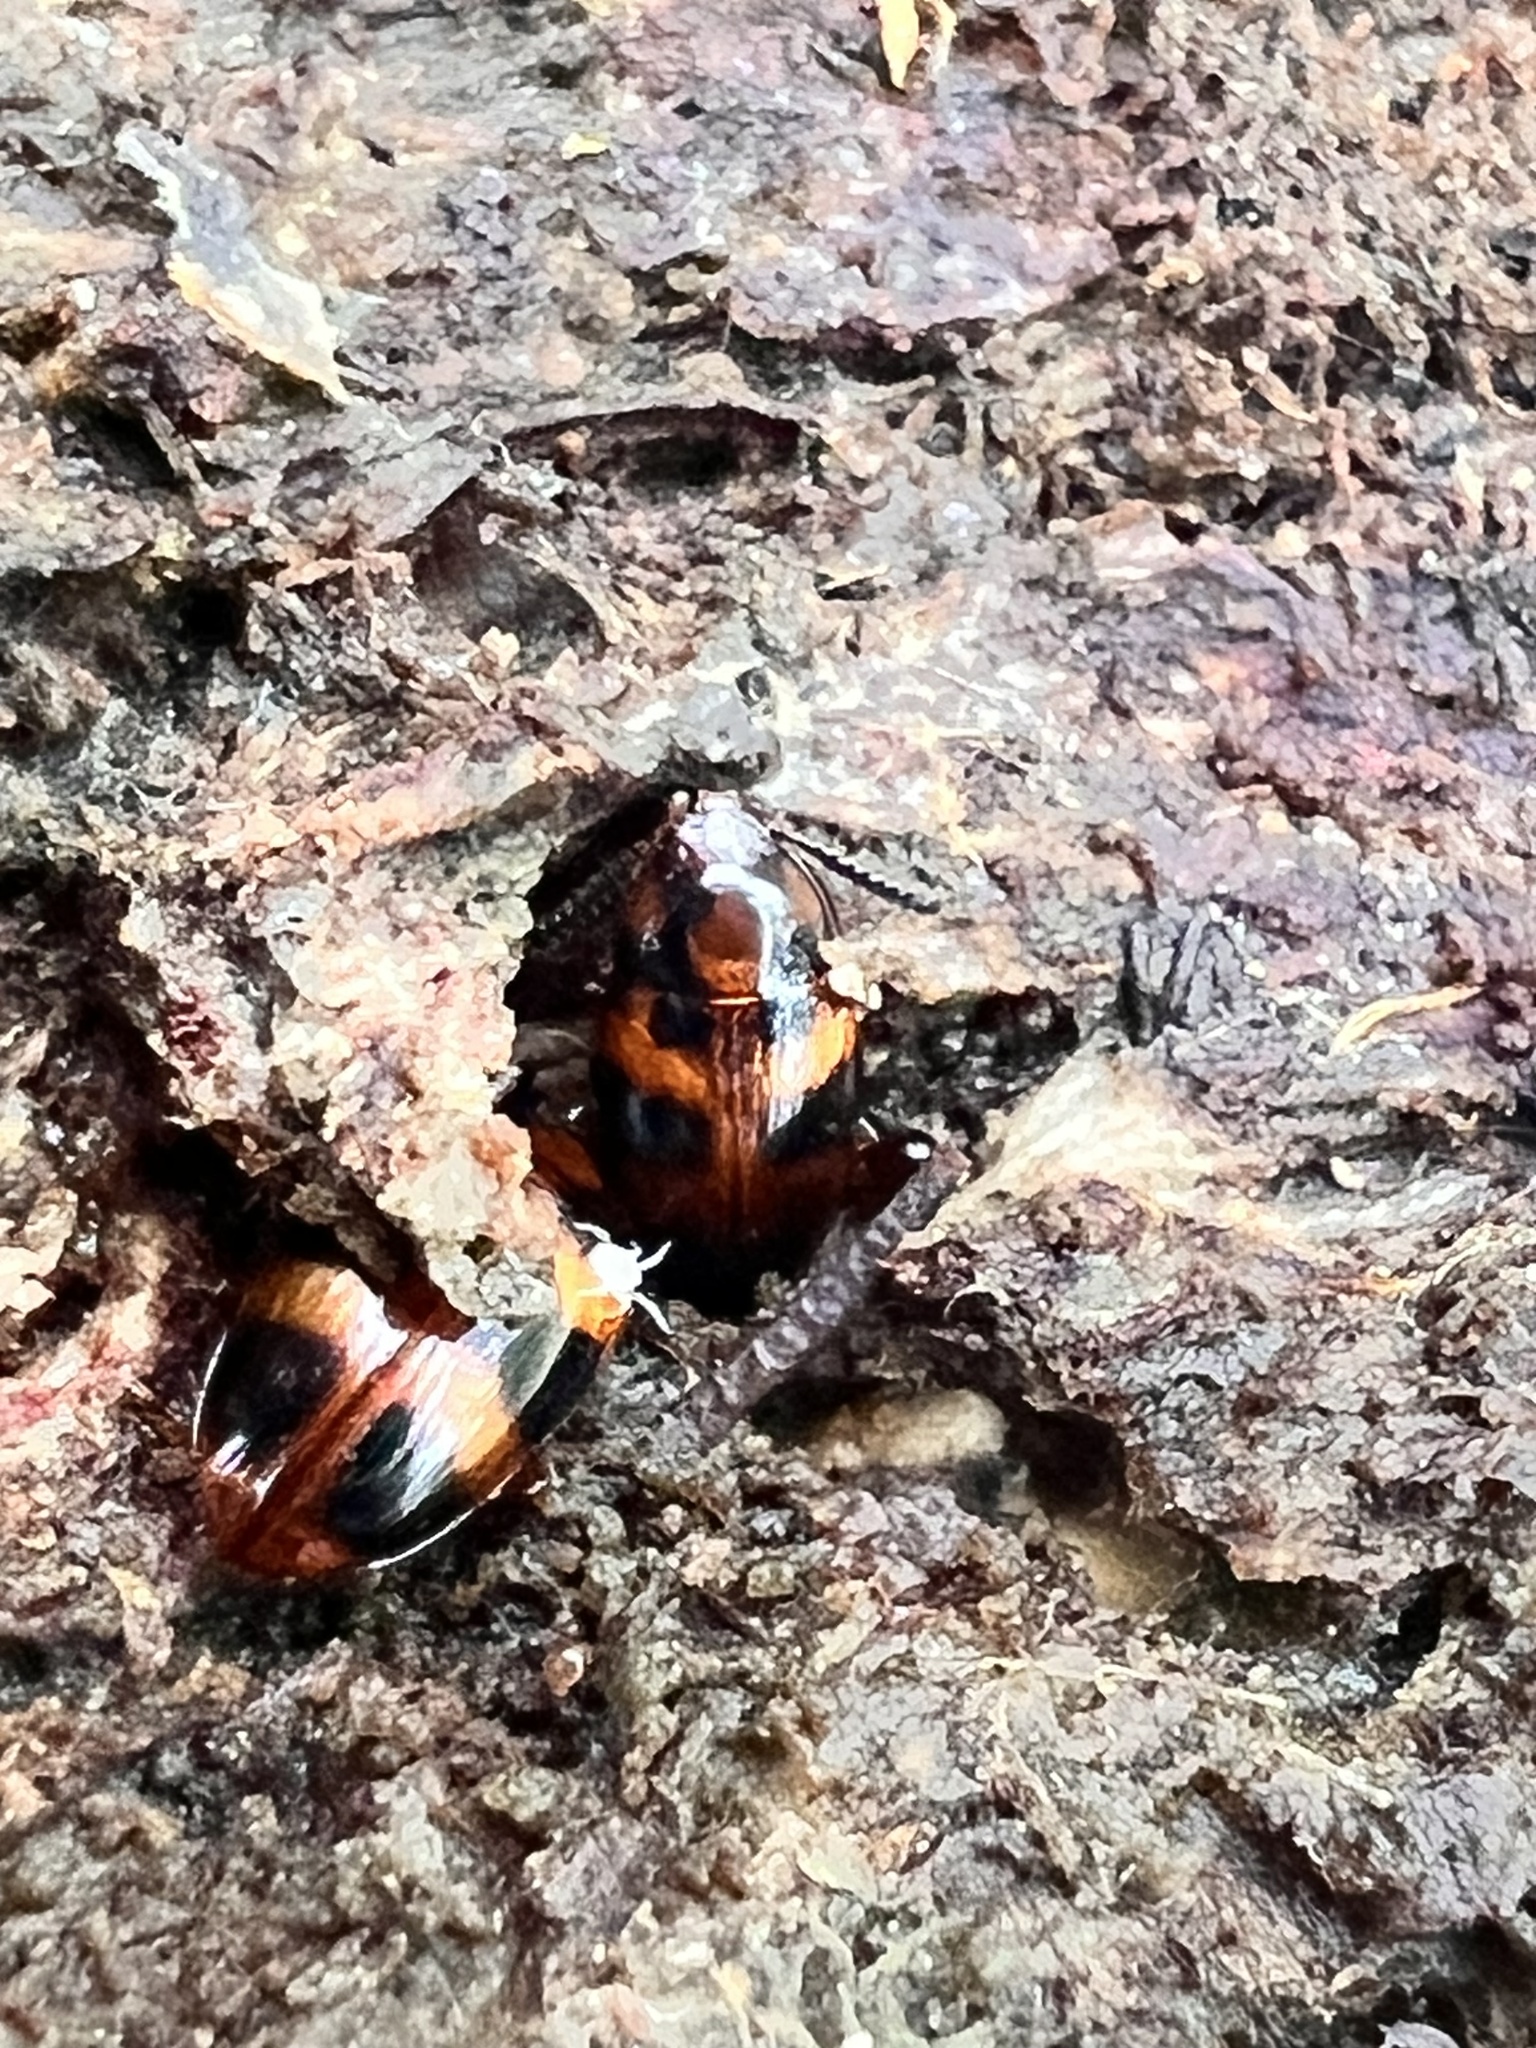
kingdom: Animalia
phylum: Arthropoda
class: Insecta
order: Coleoptera
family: Tenebrionidae
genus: Spiloscapha
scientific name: Spiloscapha
